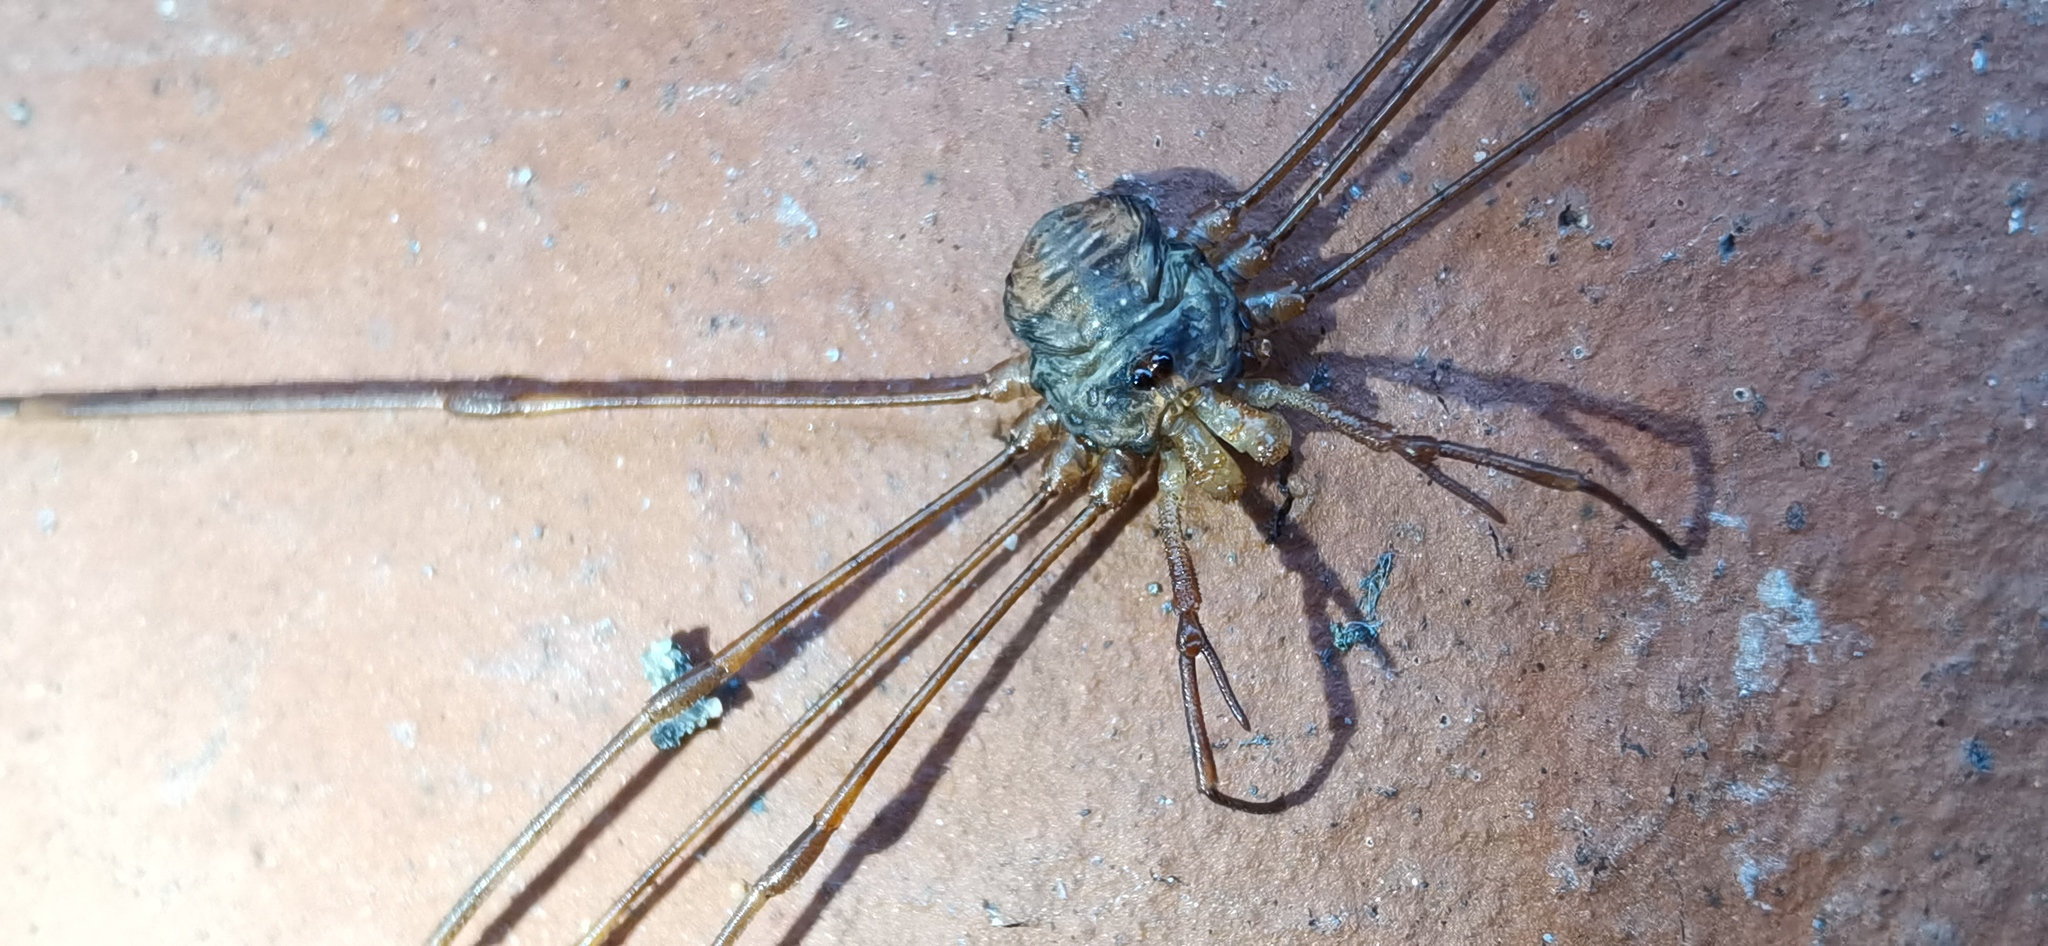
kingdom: Animalia
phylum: Arthropoda
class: Arachnida
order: Opiliones
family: Phalangiidae
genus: Dicranopalpus
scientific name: Dicranopalpus ramosus
